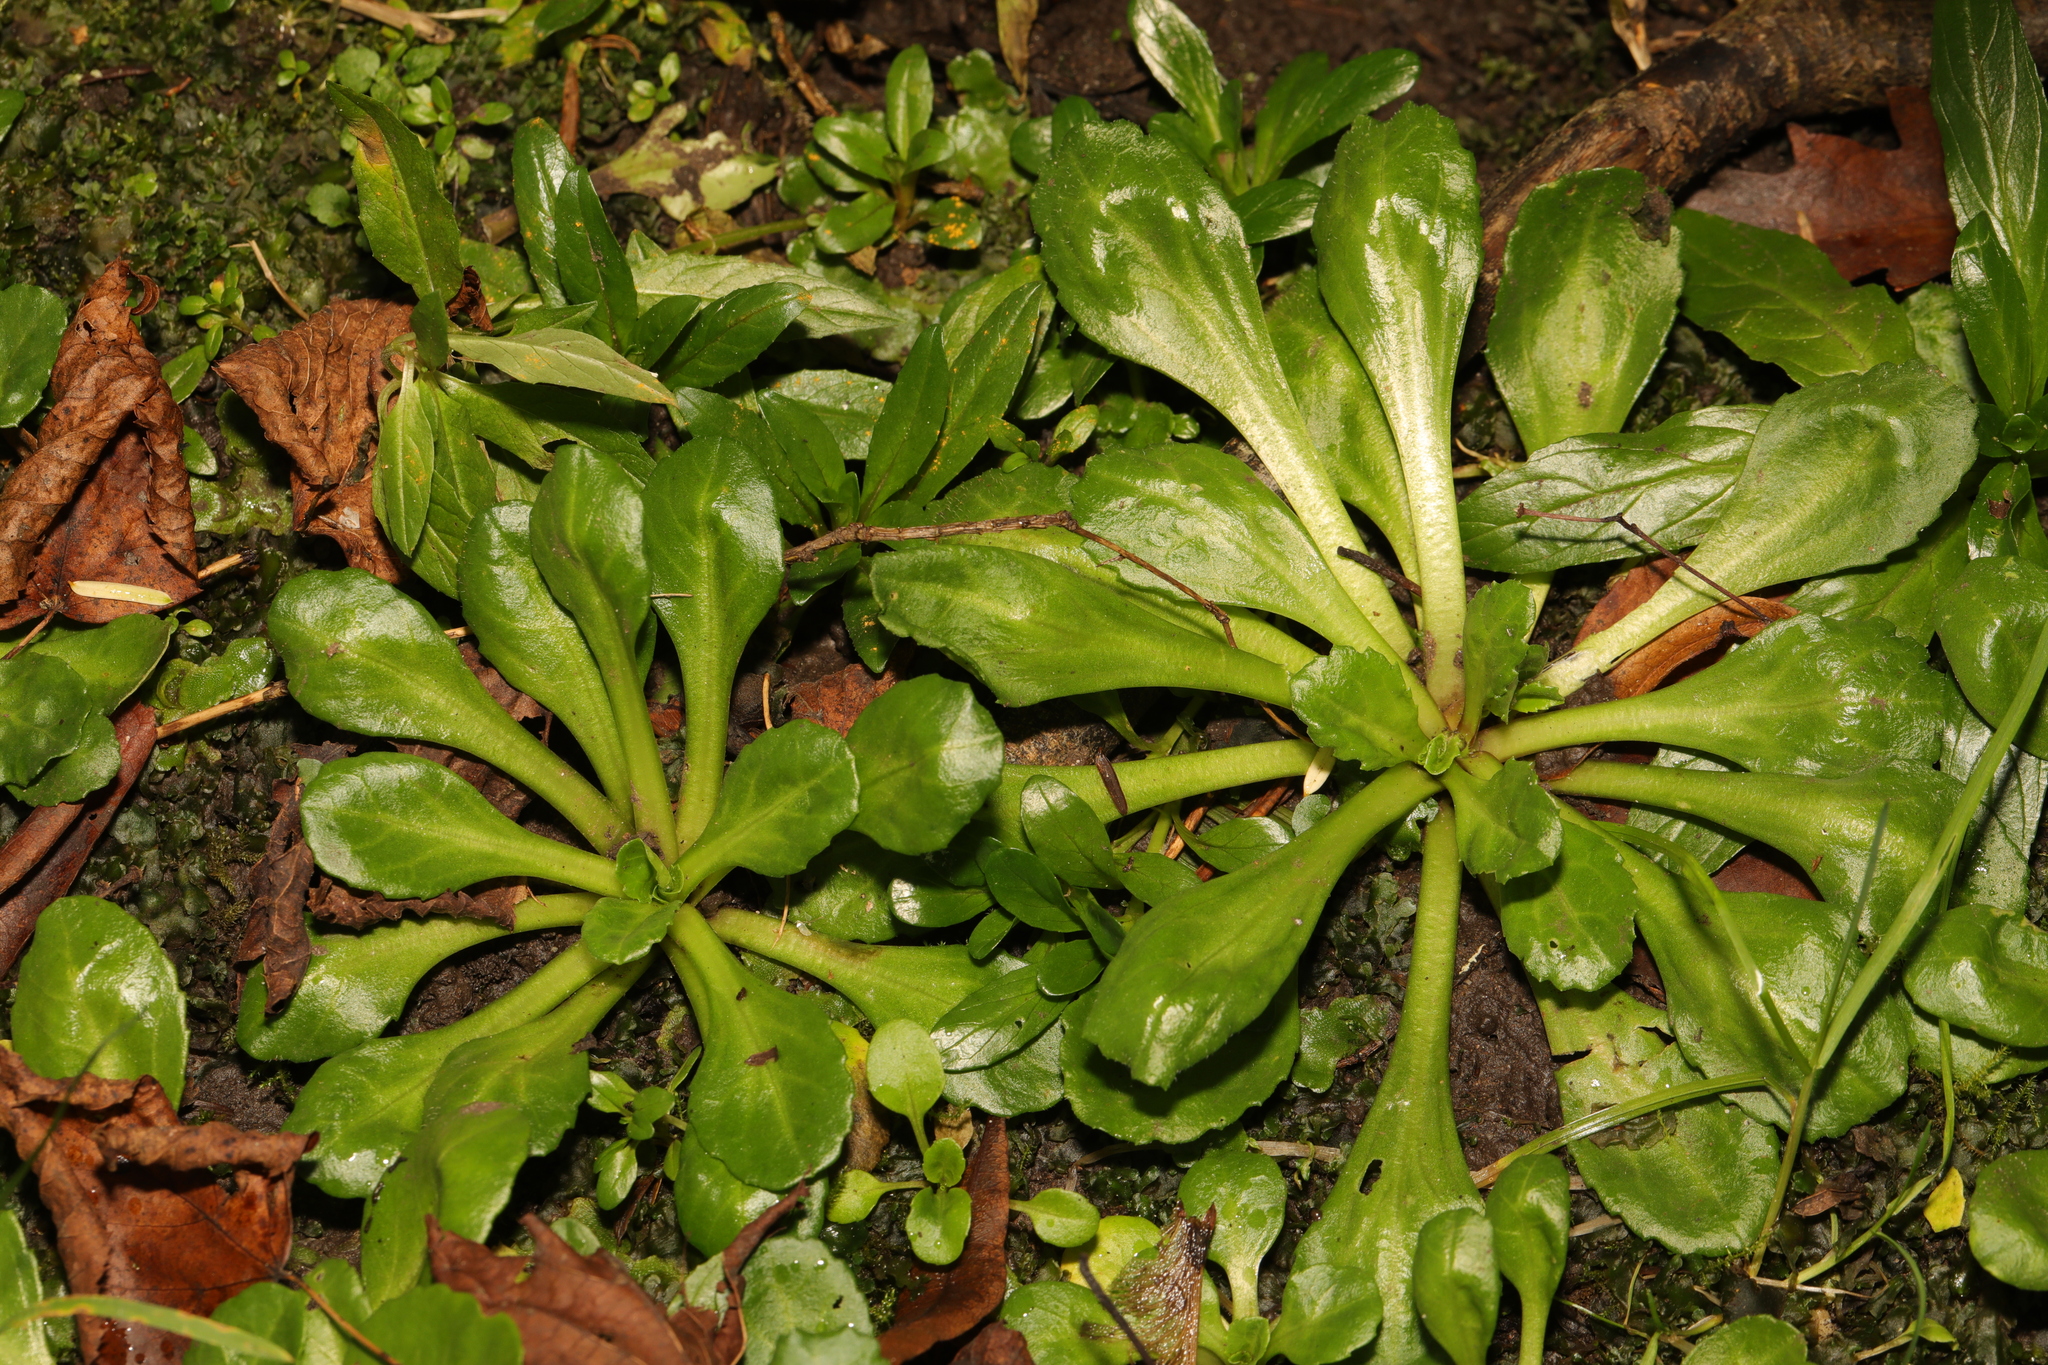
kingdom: Plantae
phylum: Tracheophyta
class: Magnoliopsida
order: Asterales
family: Asteraceae
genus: Bellis
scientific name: Bellis perennis
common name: Lawndaisy
